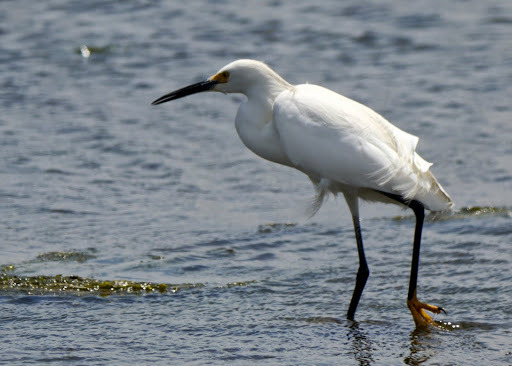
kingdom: Animalia
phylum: Chordata
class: Aves
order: Pelecaniformes
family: Ardeidae
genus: Egretta
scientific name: Egretta thula
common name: Snowy egret
